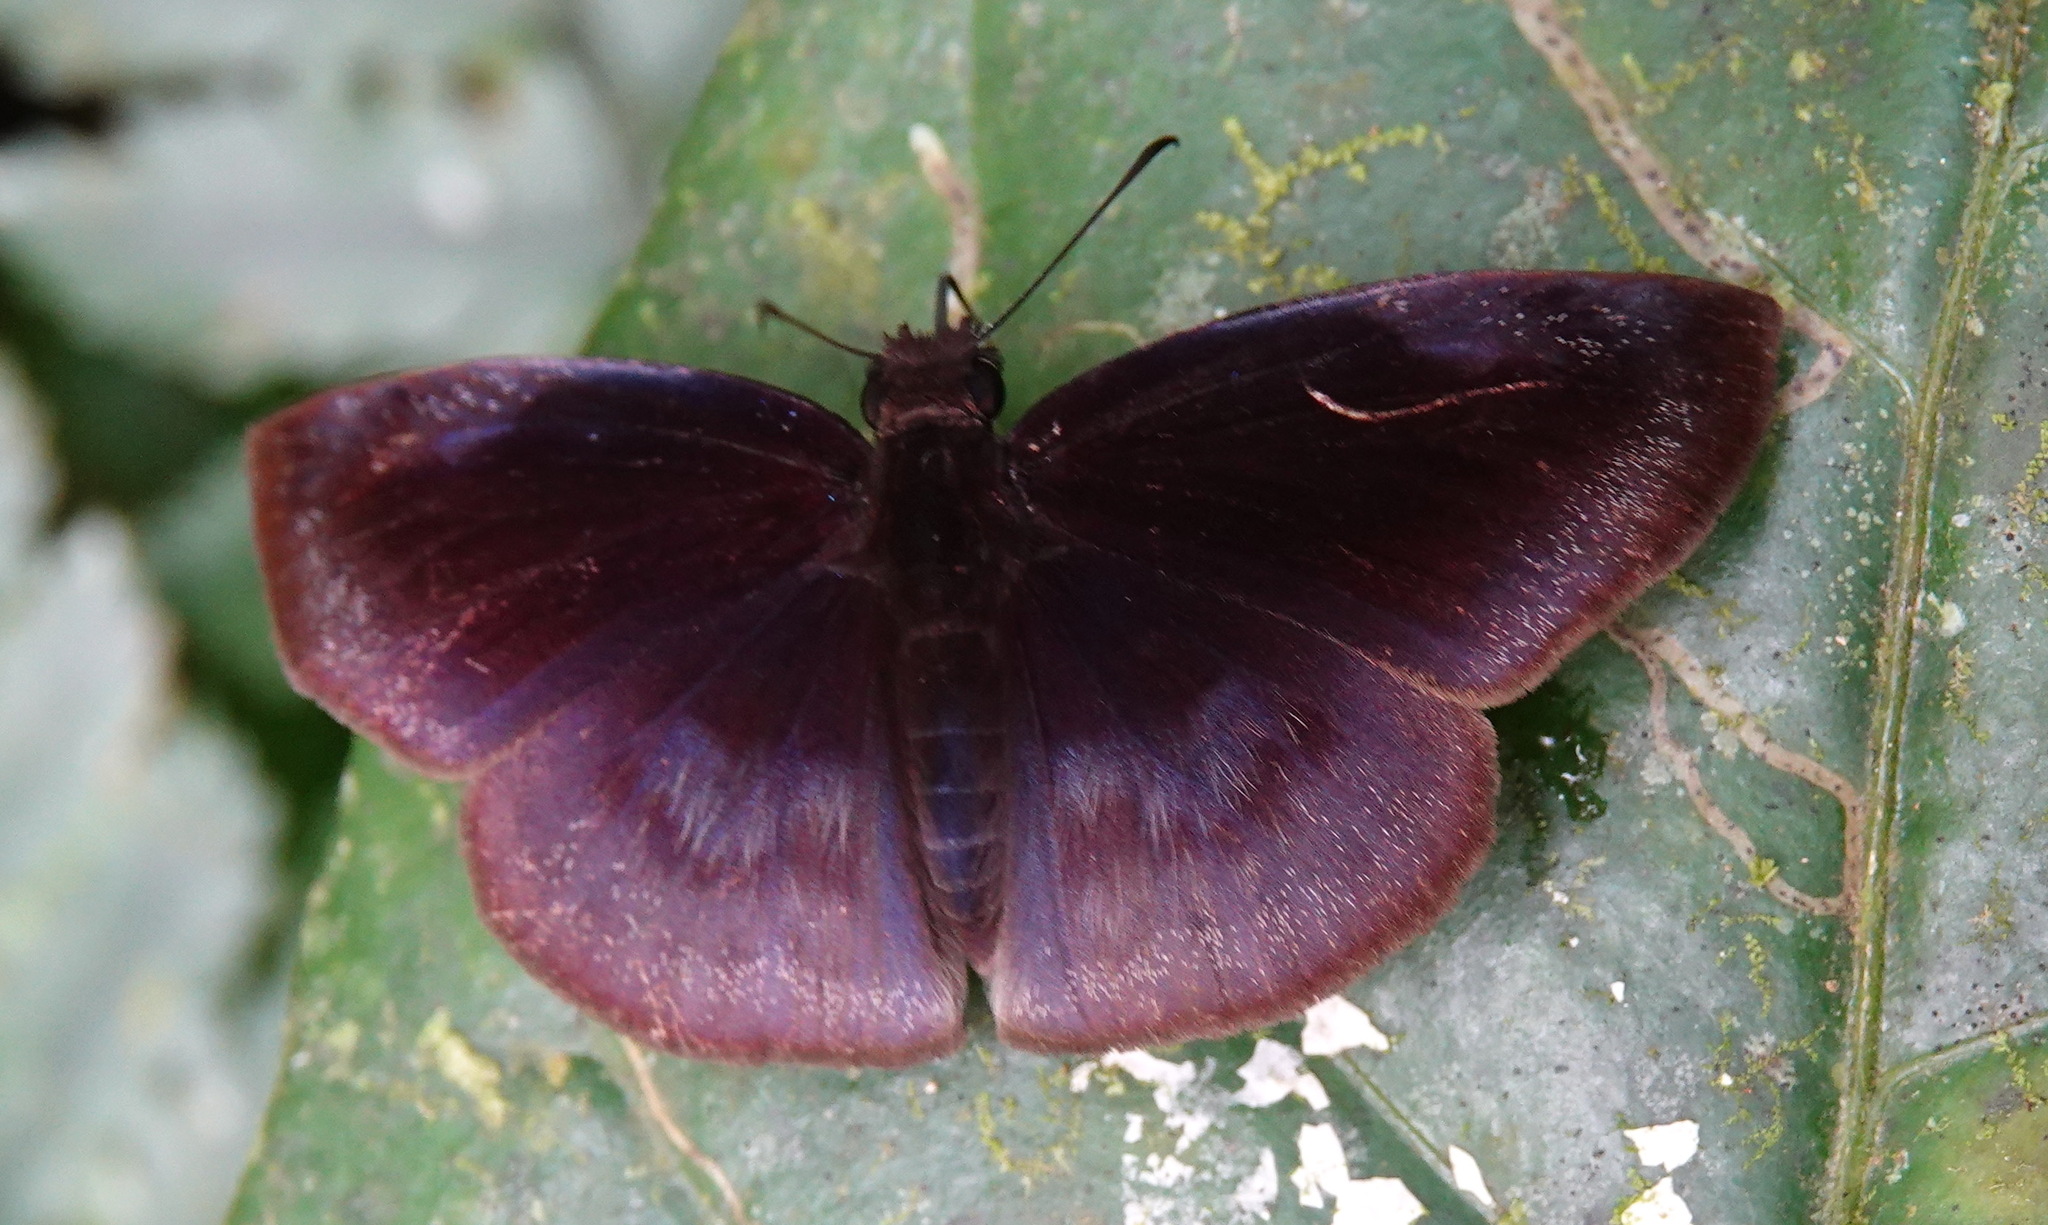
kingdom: Animalia
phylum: Arthropoda
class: Insecta
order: Lepidoptera
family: Hesperiidae
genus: Anastrus
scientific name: Anastrus meliboea
